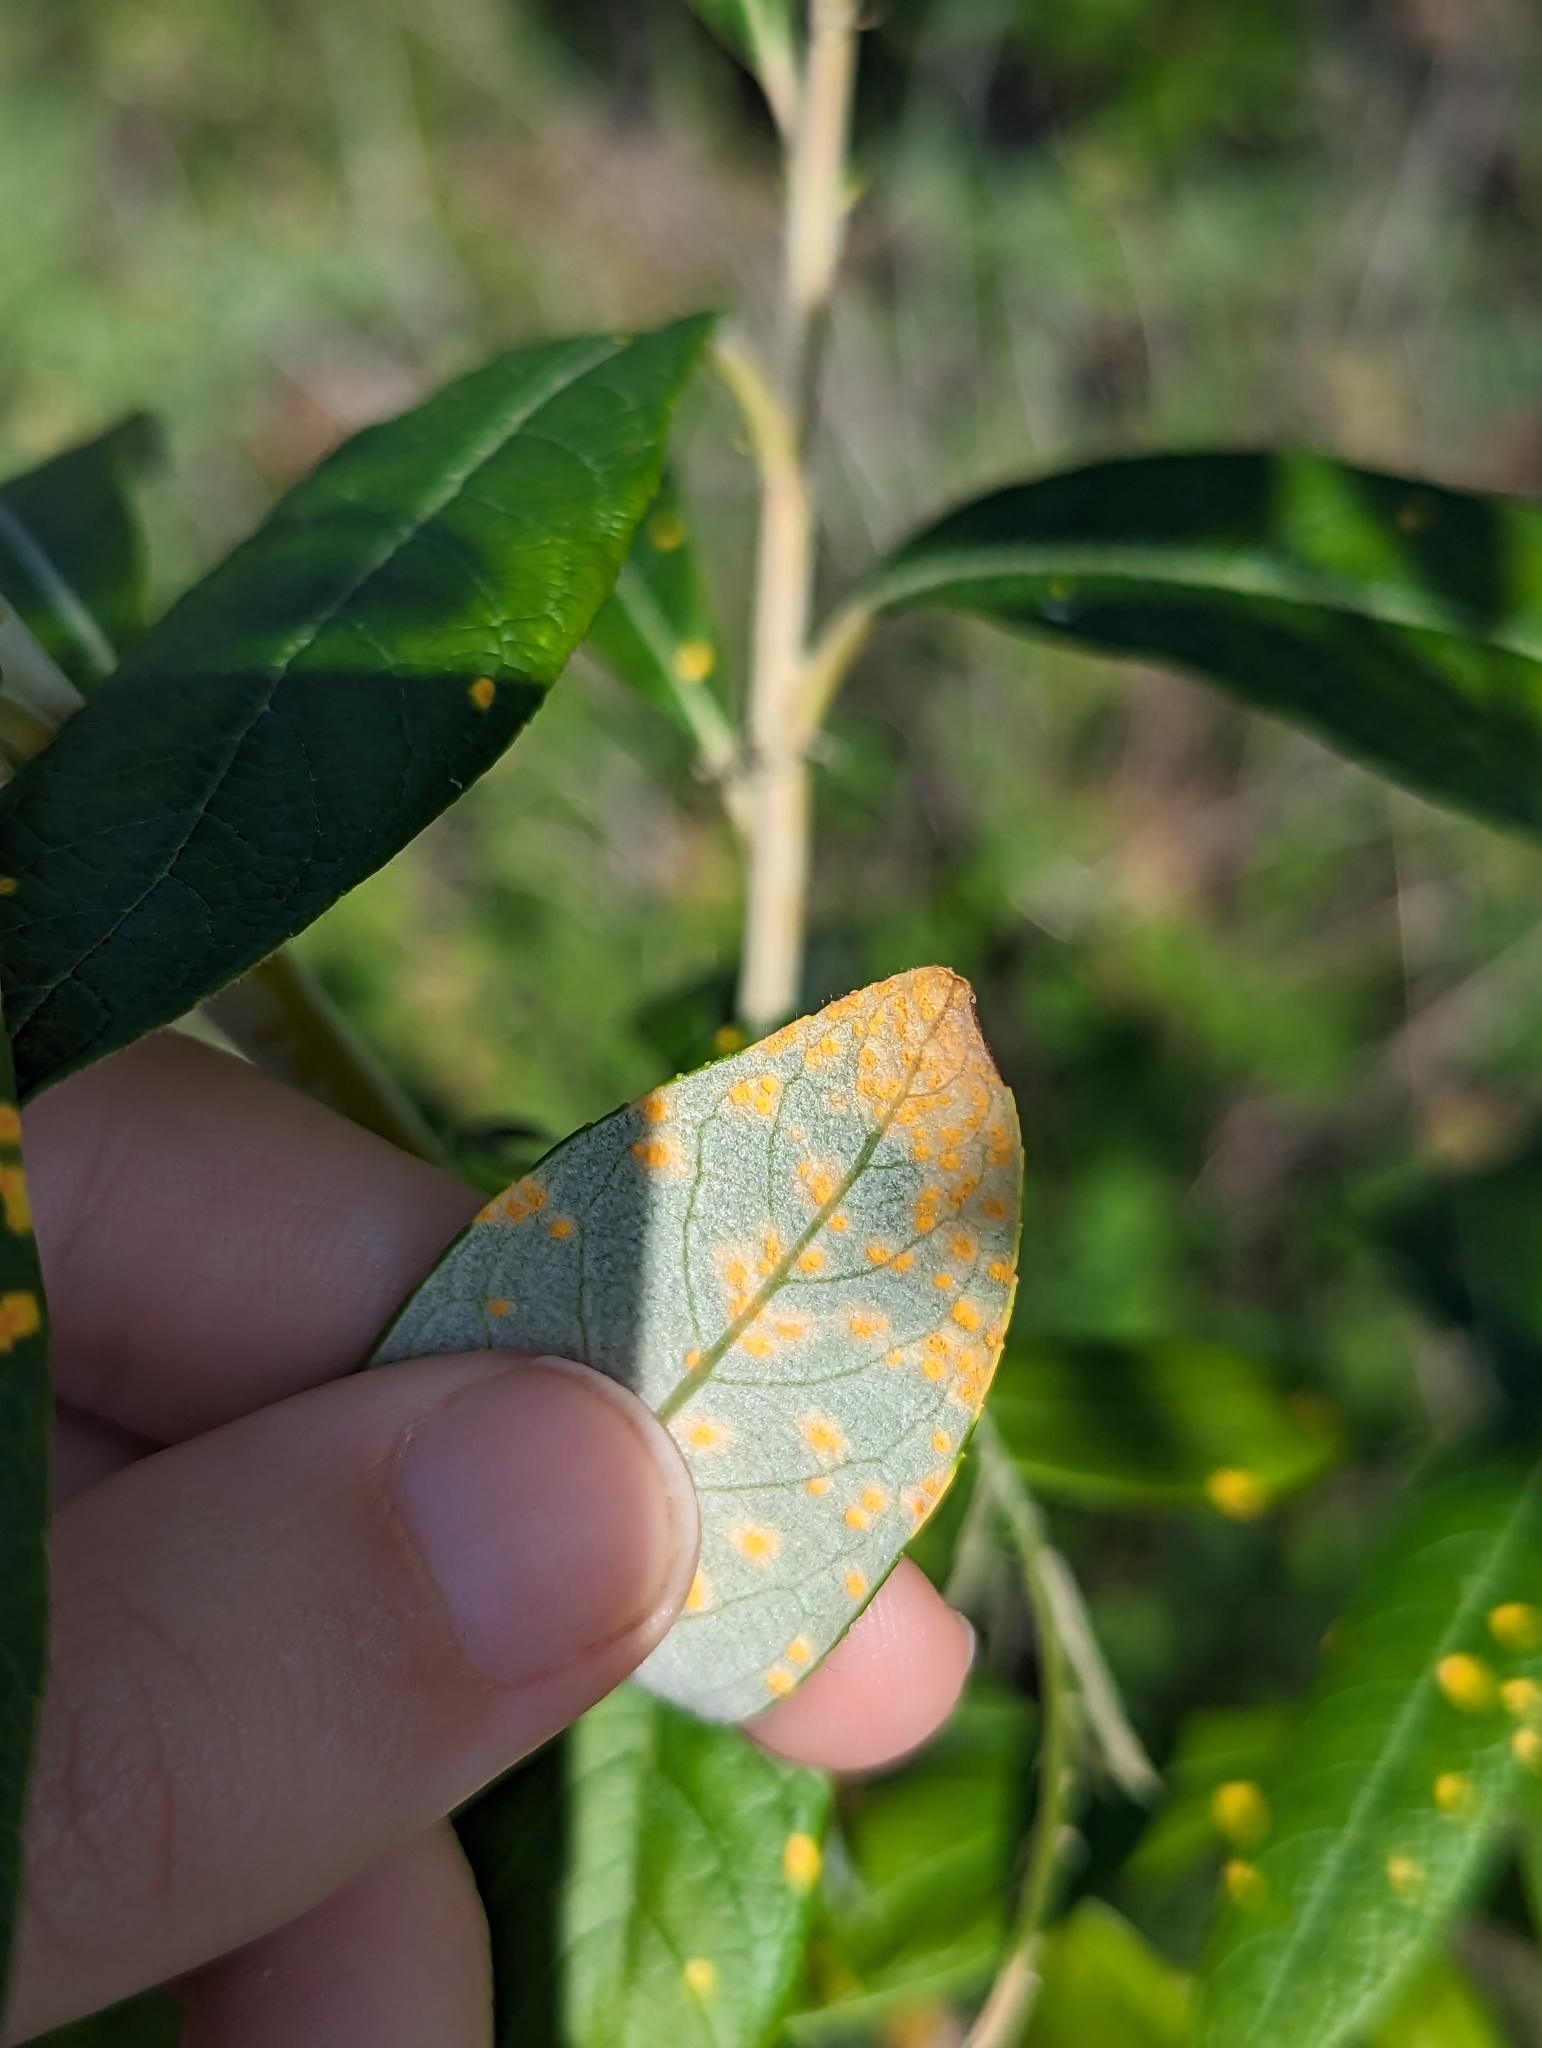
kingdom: Fungi
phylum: Basidiomycota
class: Pucciniomycetes
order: Pucciniales
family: Melampsoraceae
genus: Melampsora
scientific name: Melampsora
